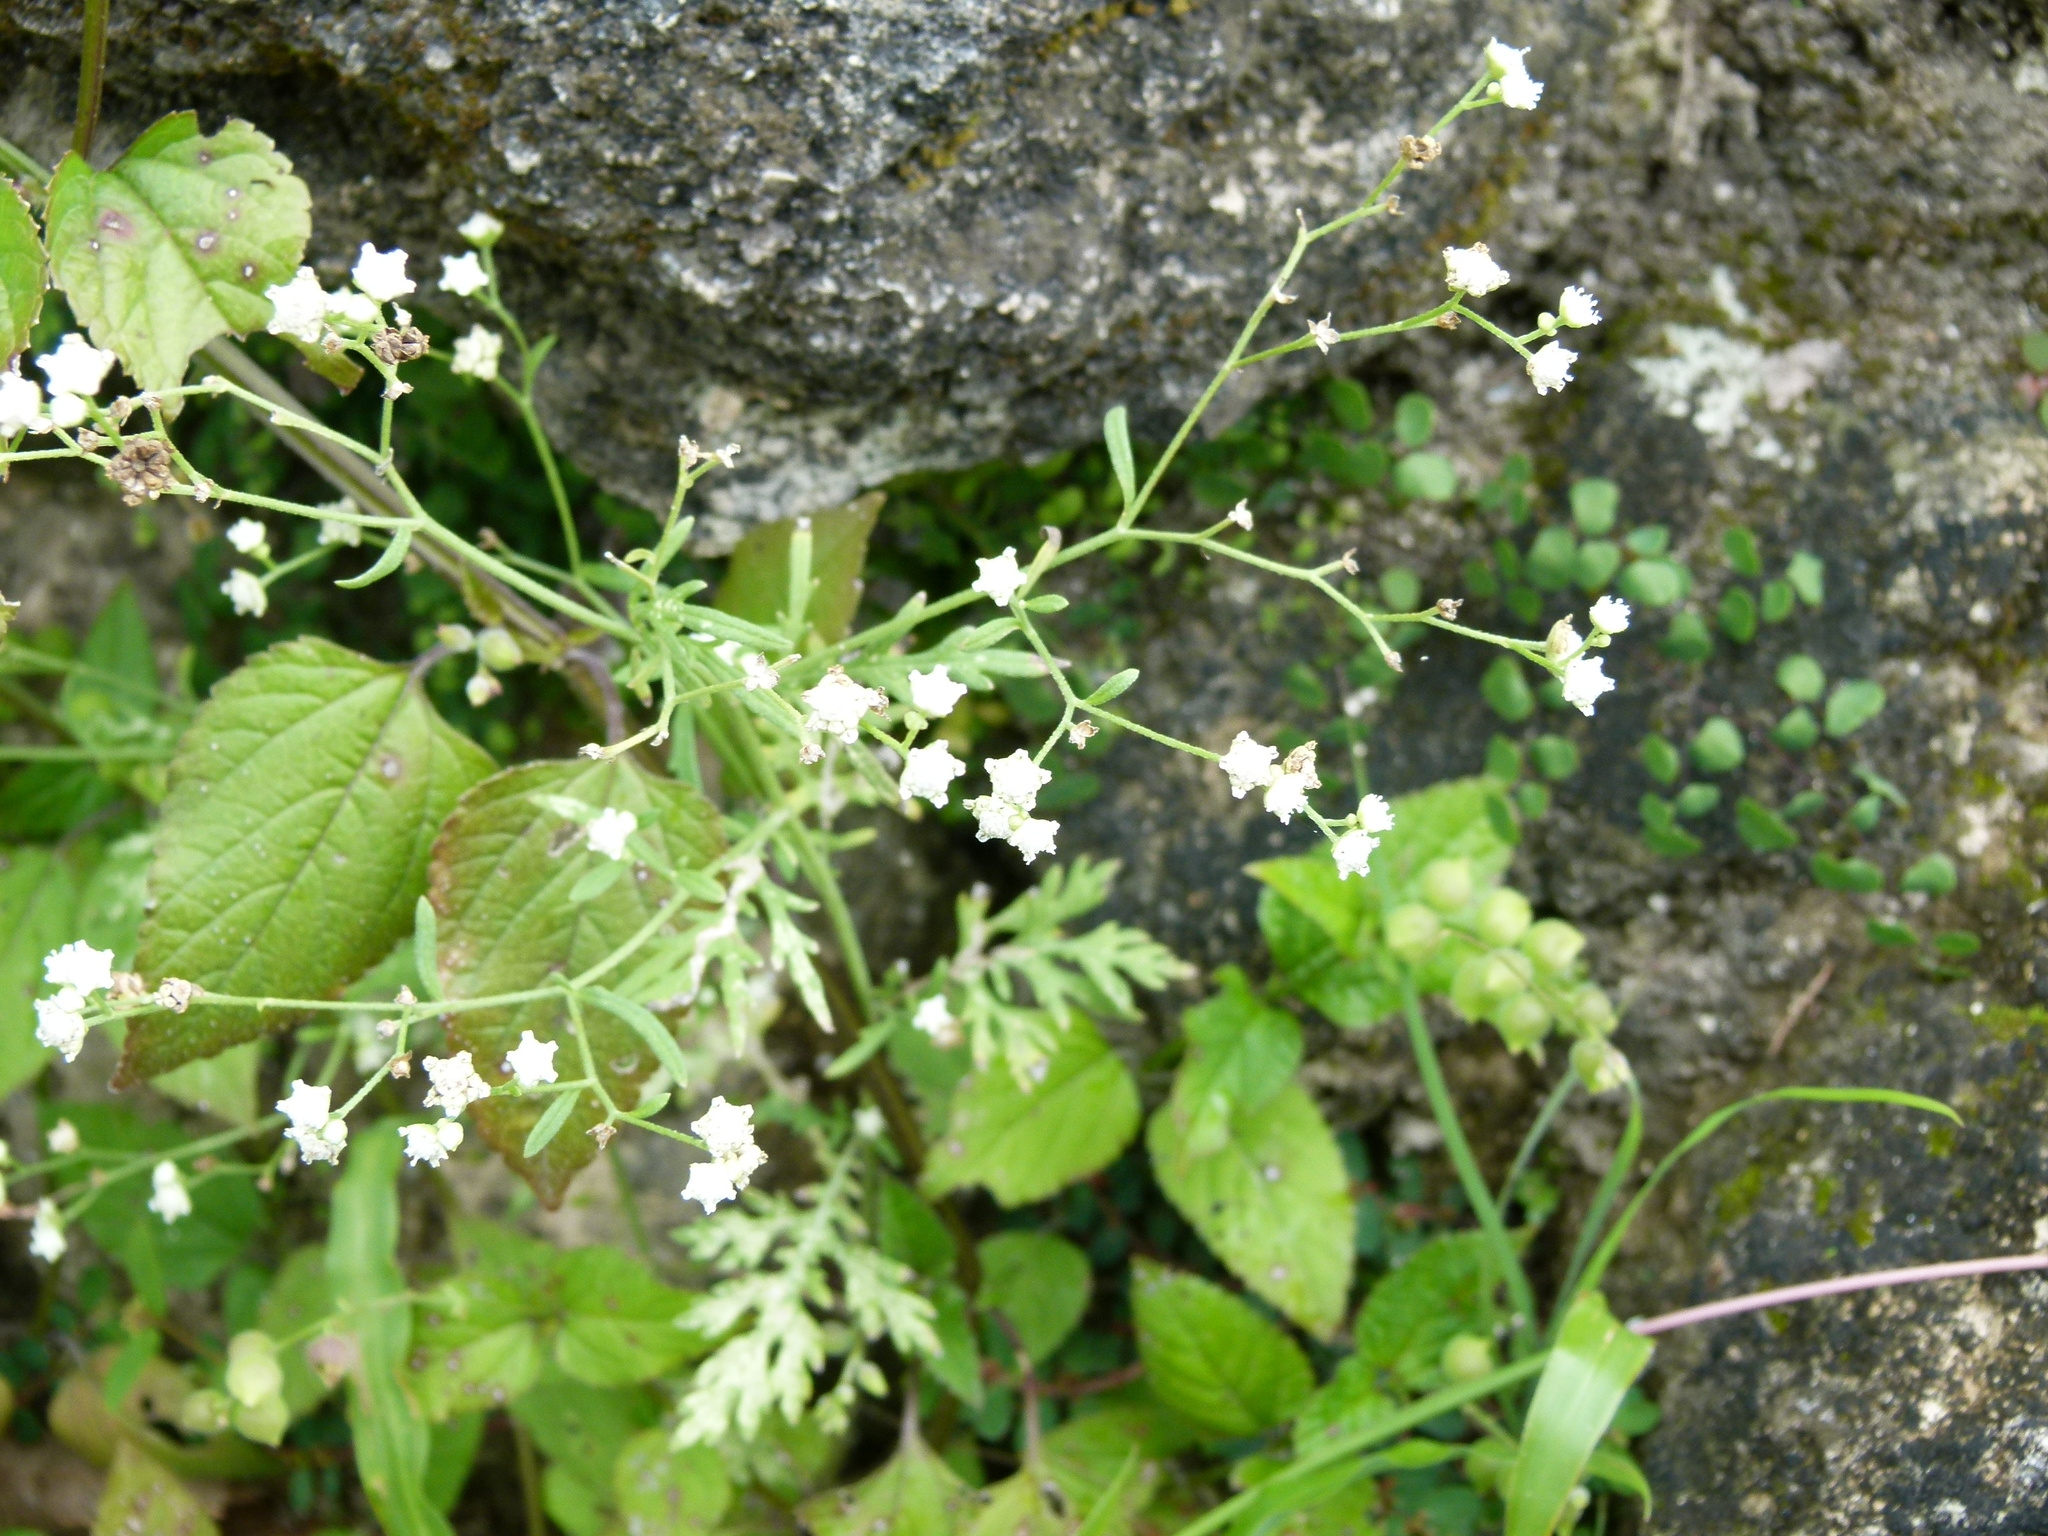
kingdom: Plantae
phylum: Tracheophyta
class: Magnoliopsida
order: Asterales
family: Asteraceae
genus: Parthenium
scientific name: Parthenium hysterophorus
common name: Santa maria feverfew
